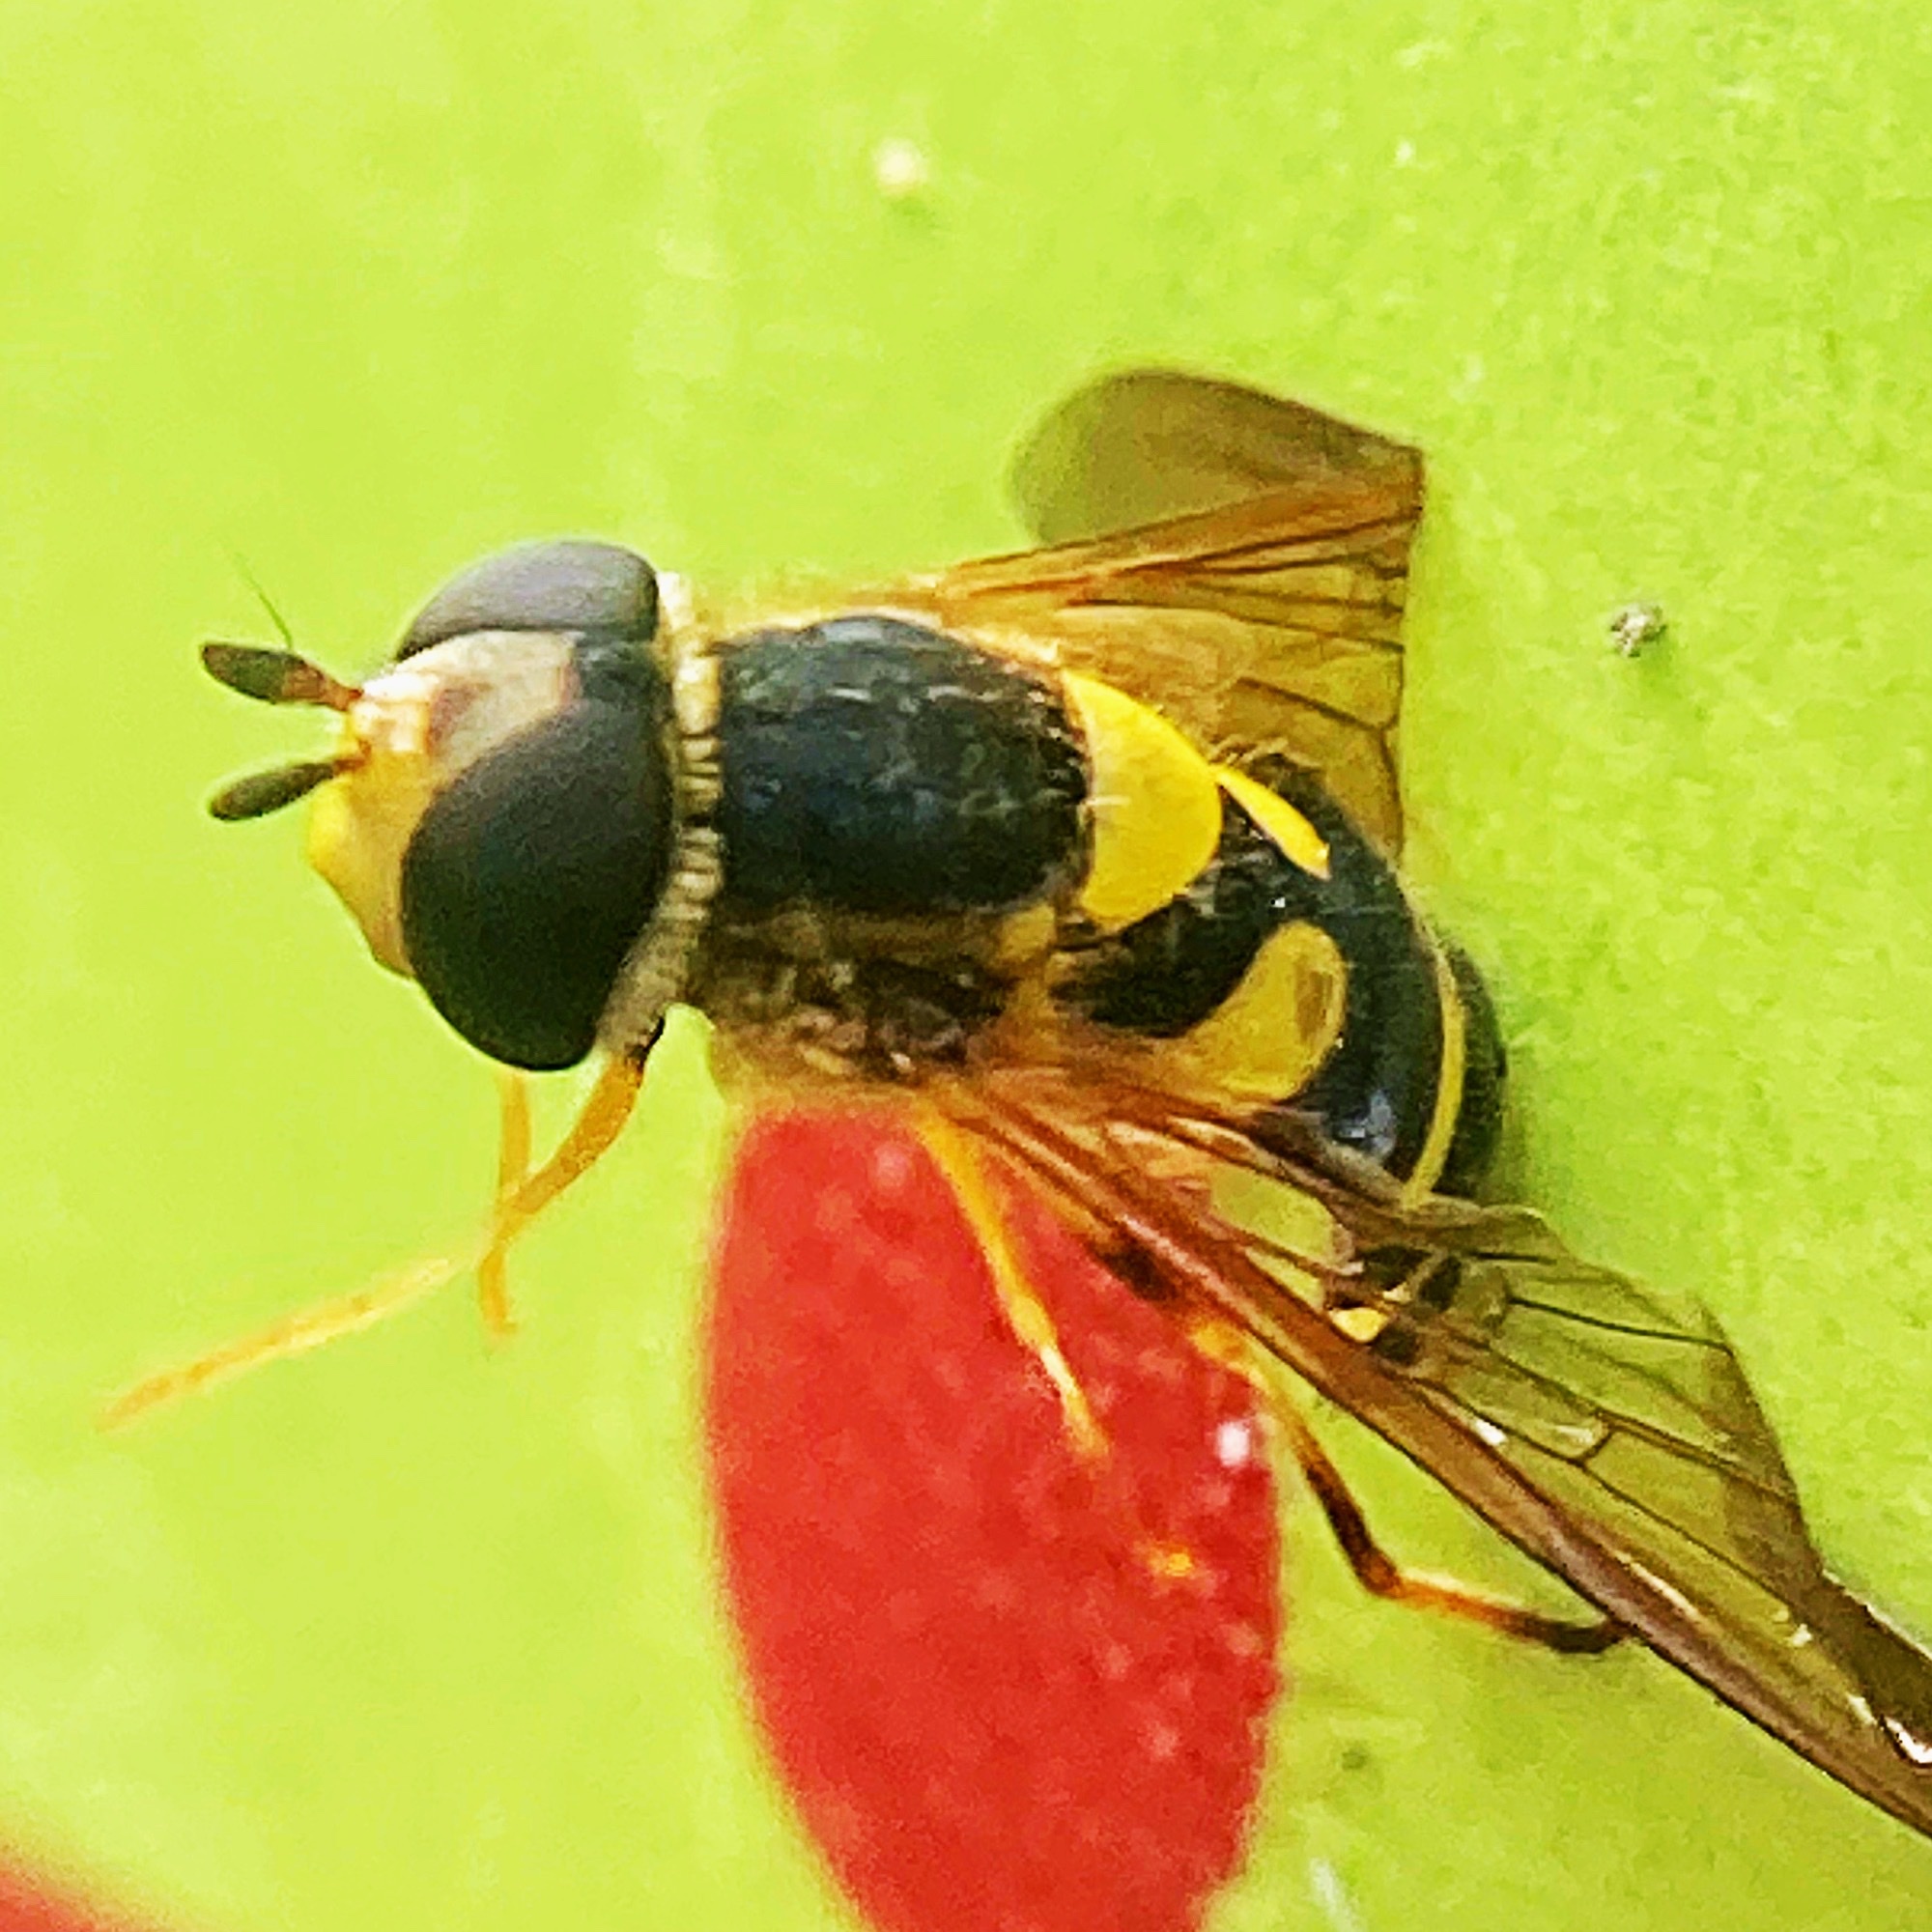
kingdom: Animalia
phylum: Arthropoda
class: Insecta
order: Diptera
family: Syrphidae
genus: Syrphus
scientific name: Syrphus knabi
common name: Eastern flower fly
